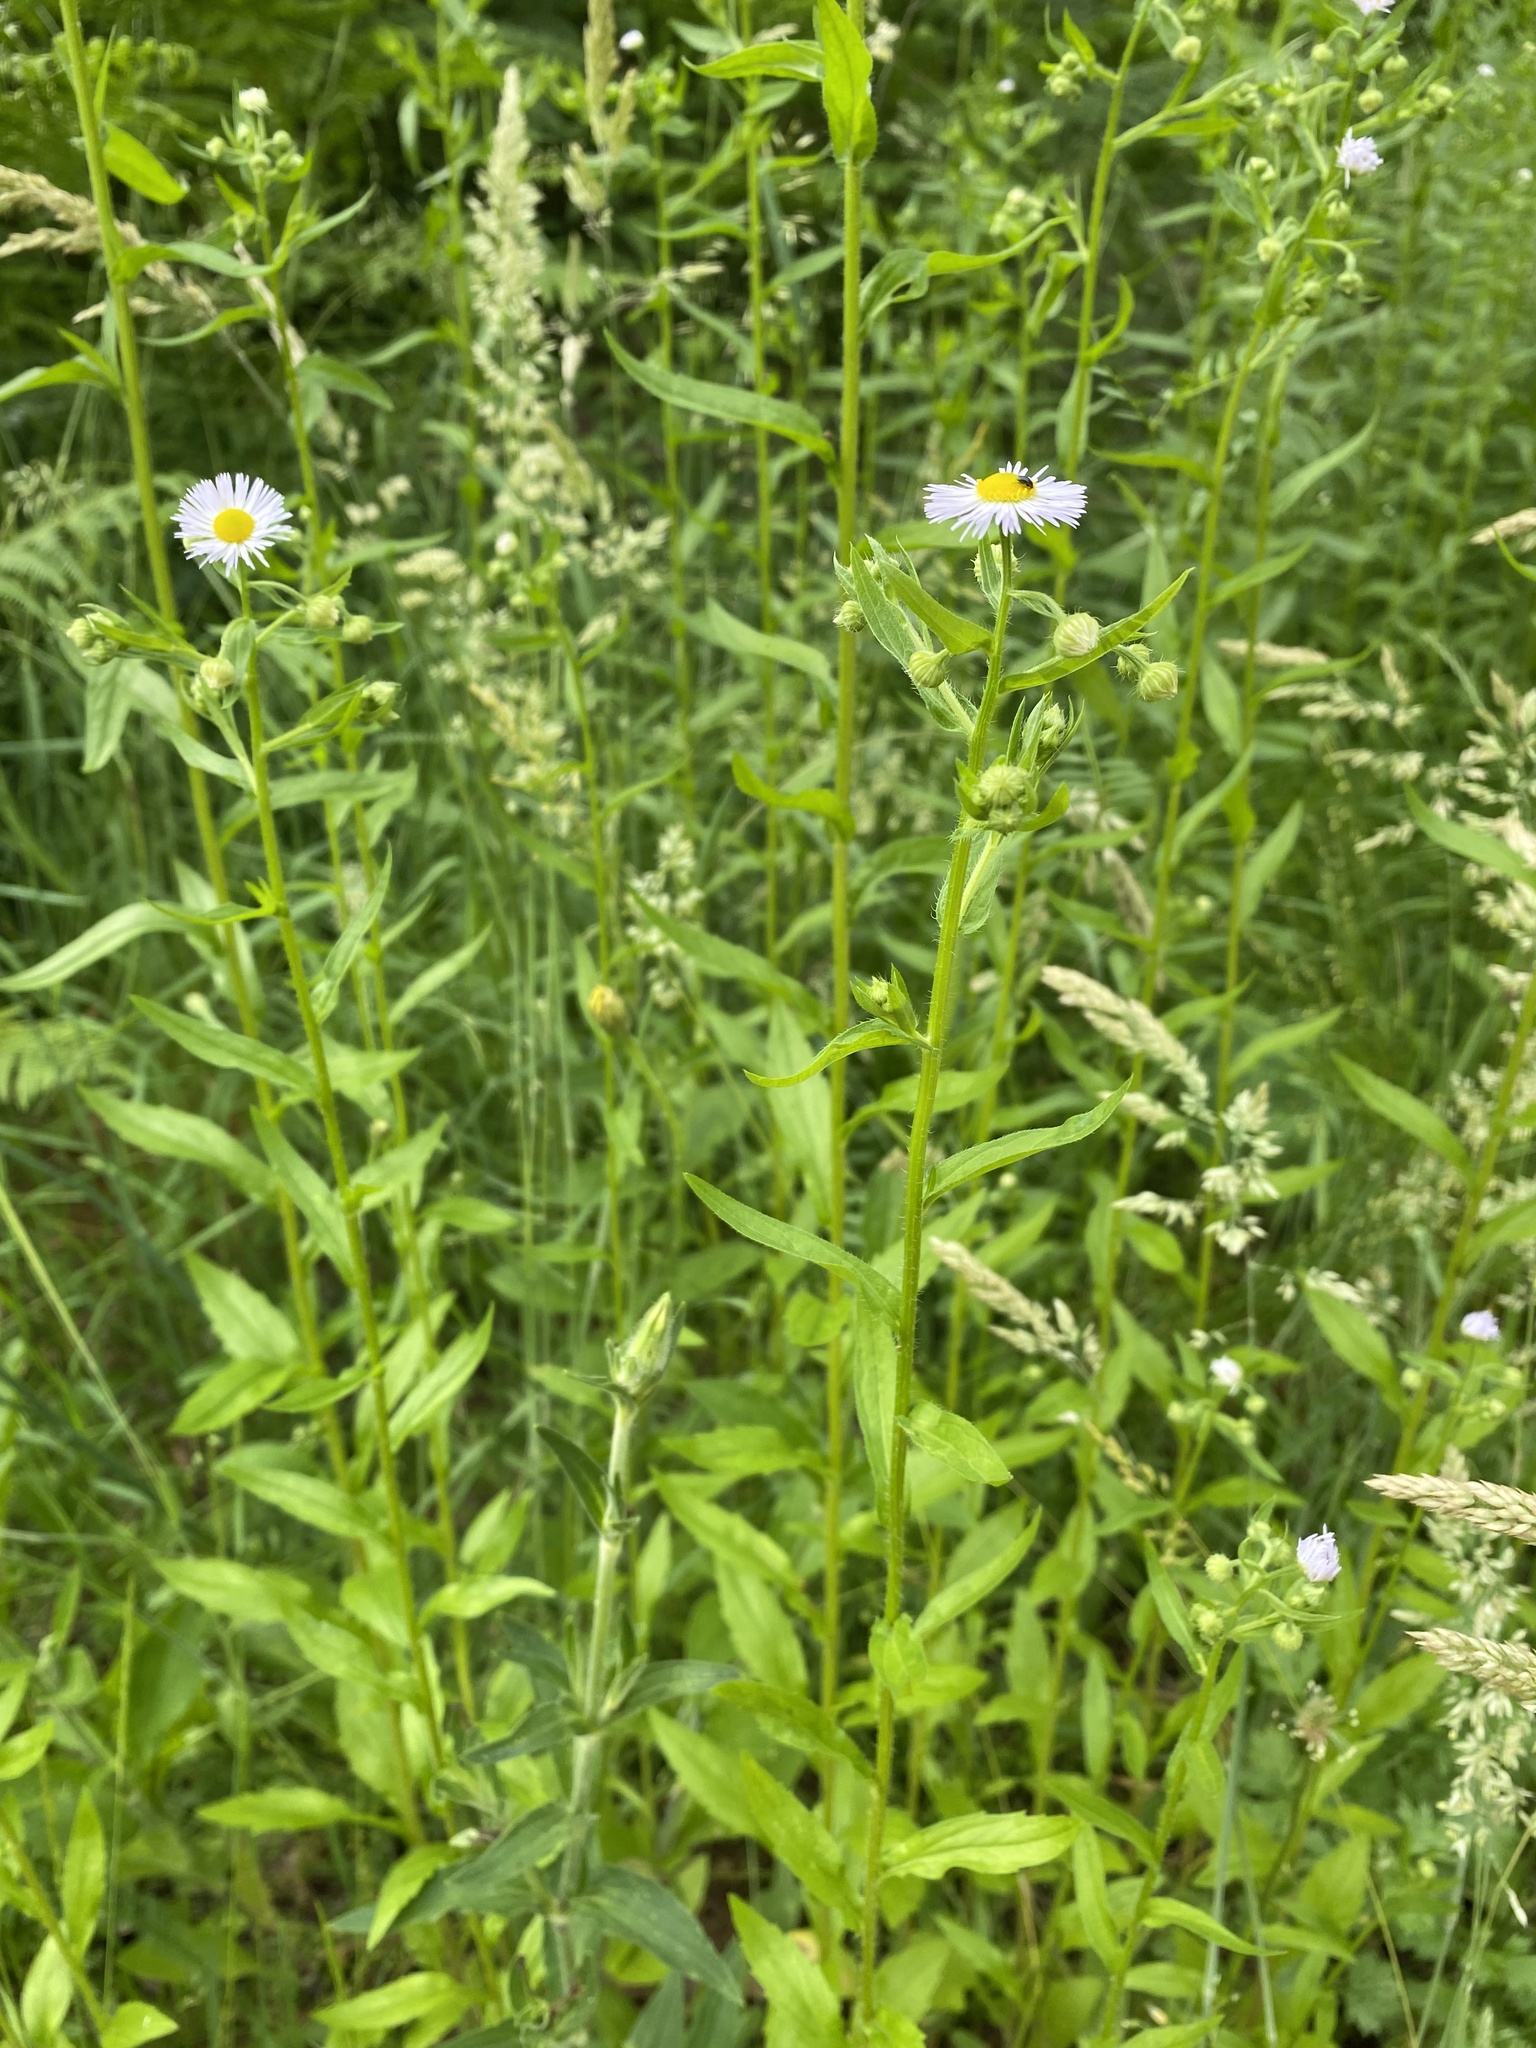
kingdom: Plantae
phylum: Tracheophyta
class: Magnoliopsida
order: Asterales
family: Asteraceae
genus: Erigeron
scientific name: Erigeron annuus
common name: Tall fleabane
